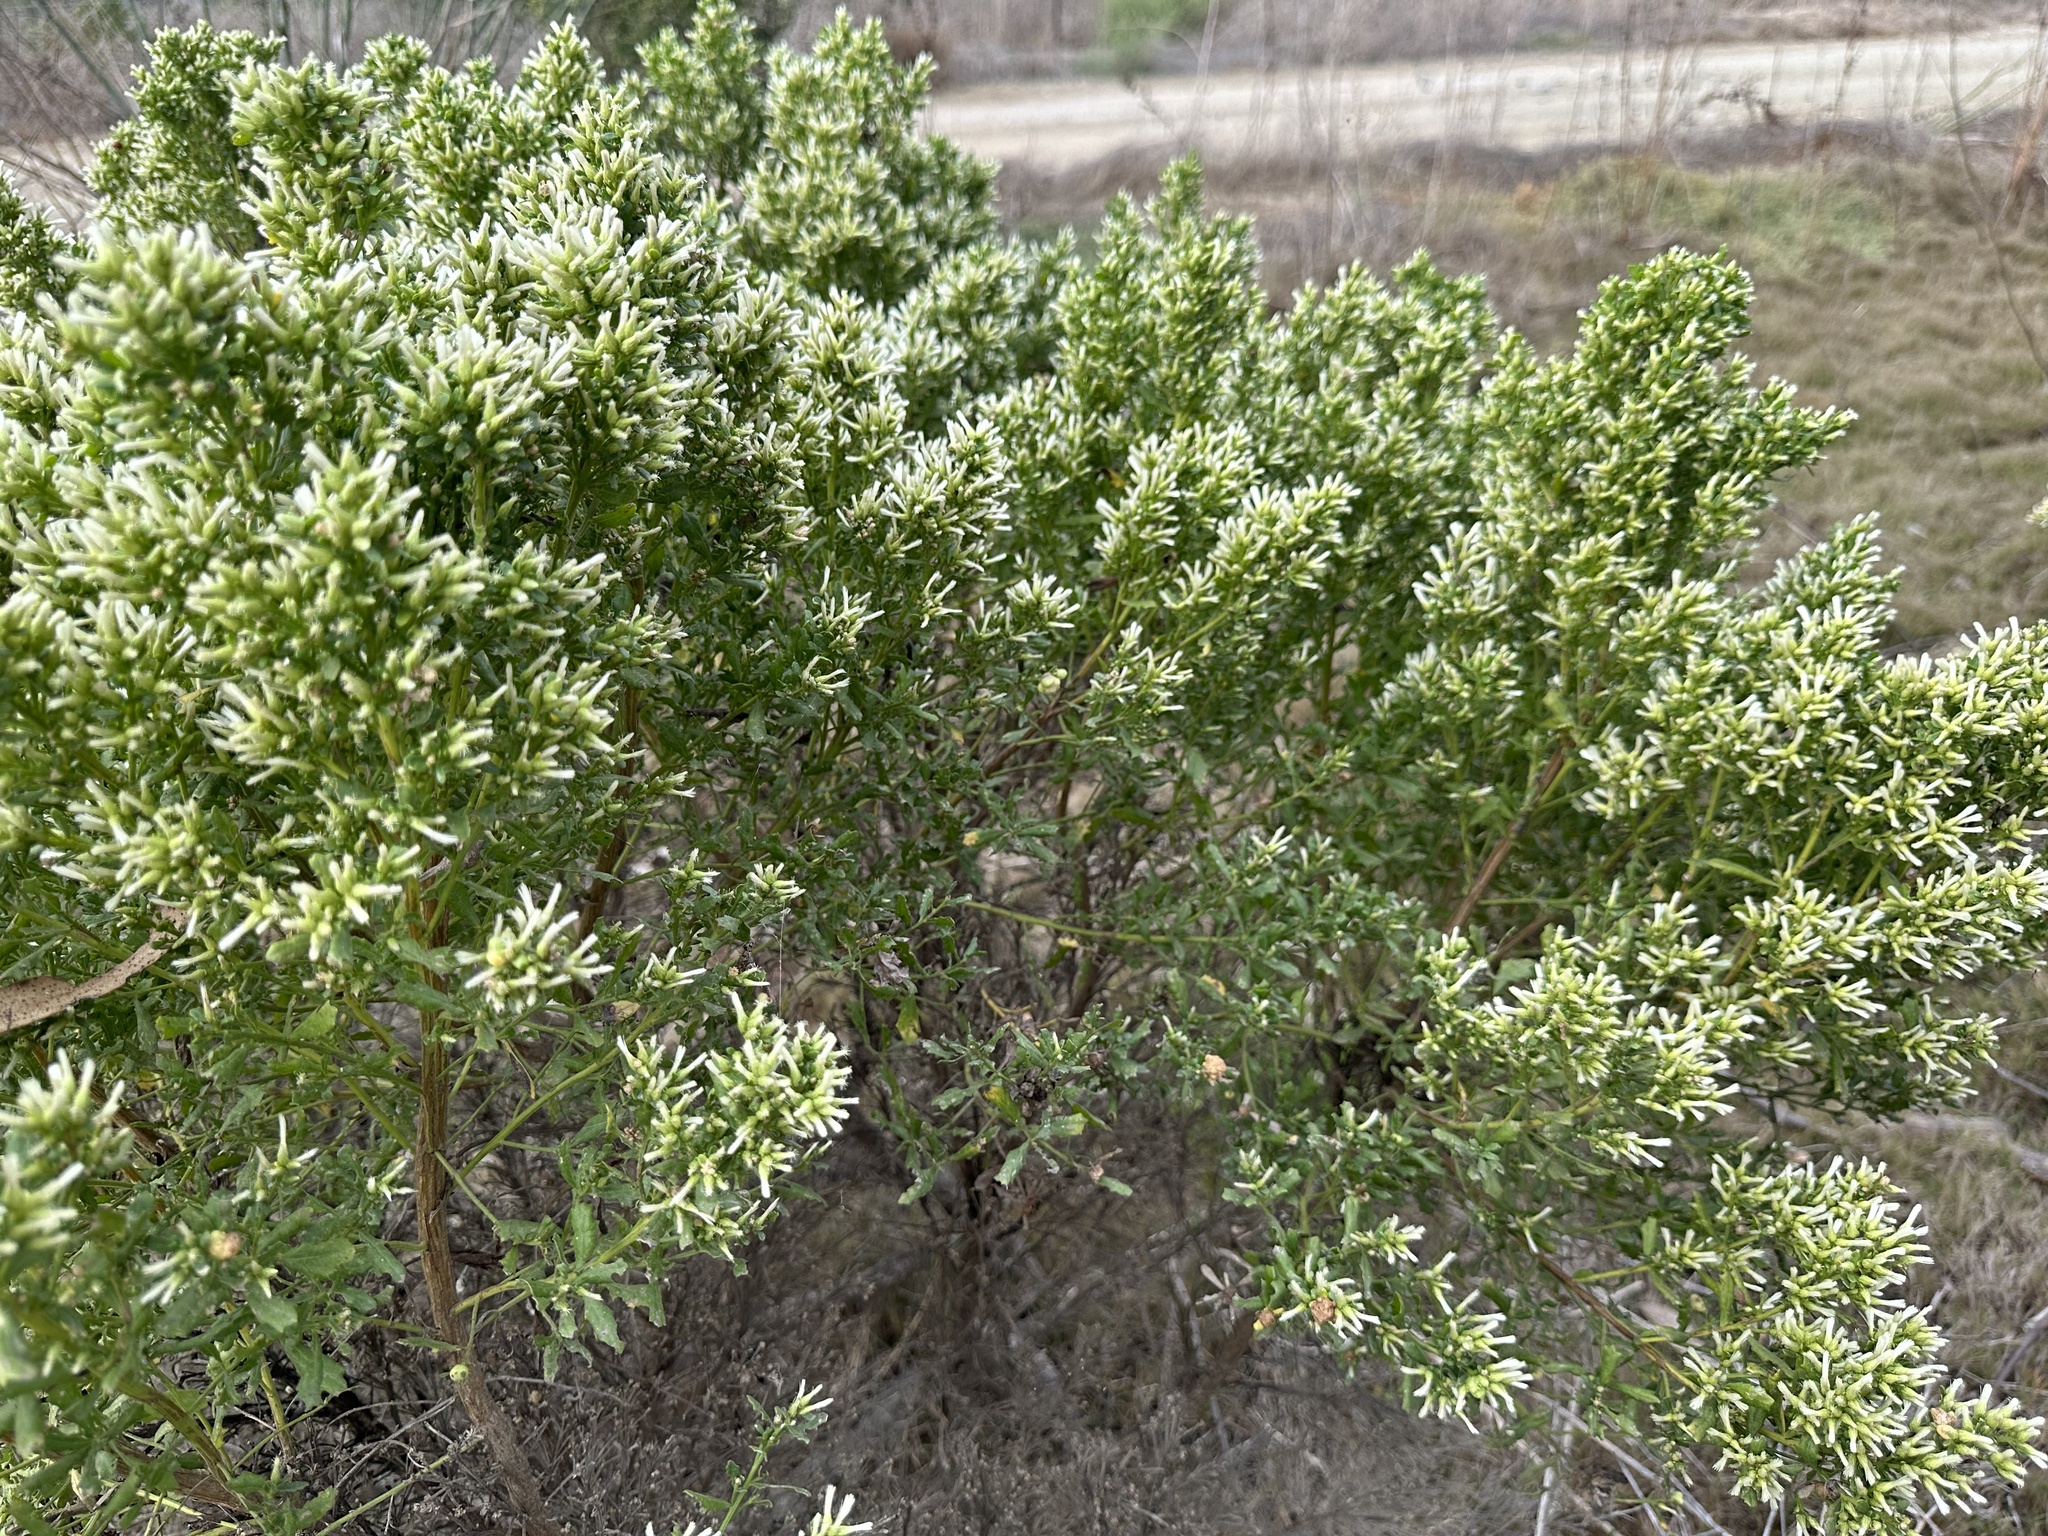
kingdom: Plantae
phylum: Tracheophyta
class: Magnoliopsida
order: Asterales
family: Asteraceae
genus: Baccharis
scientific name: Baccharis pilularis
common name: Coyotebrush
